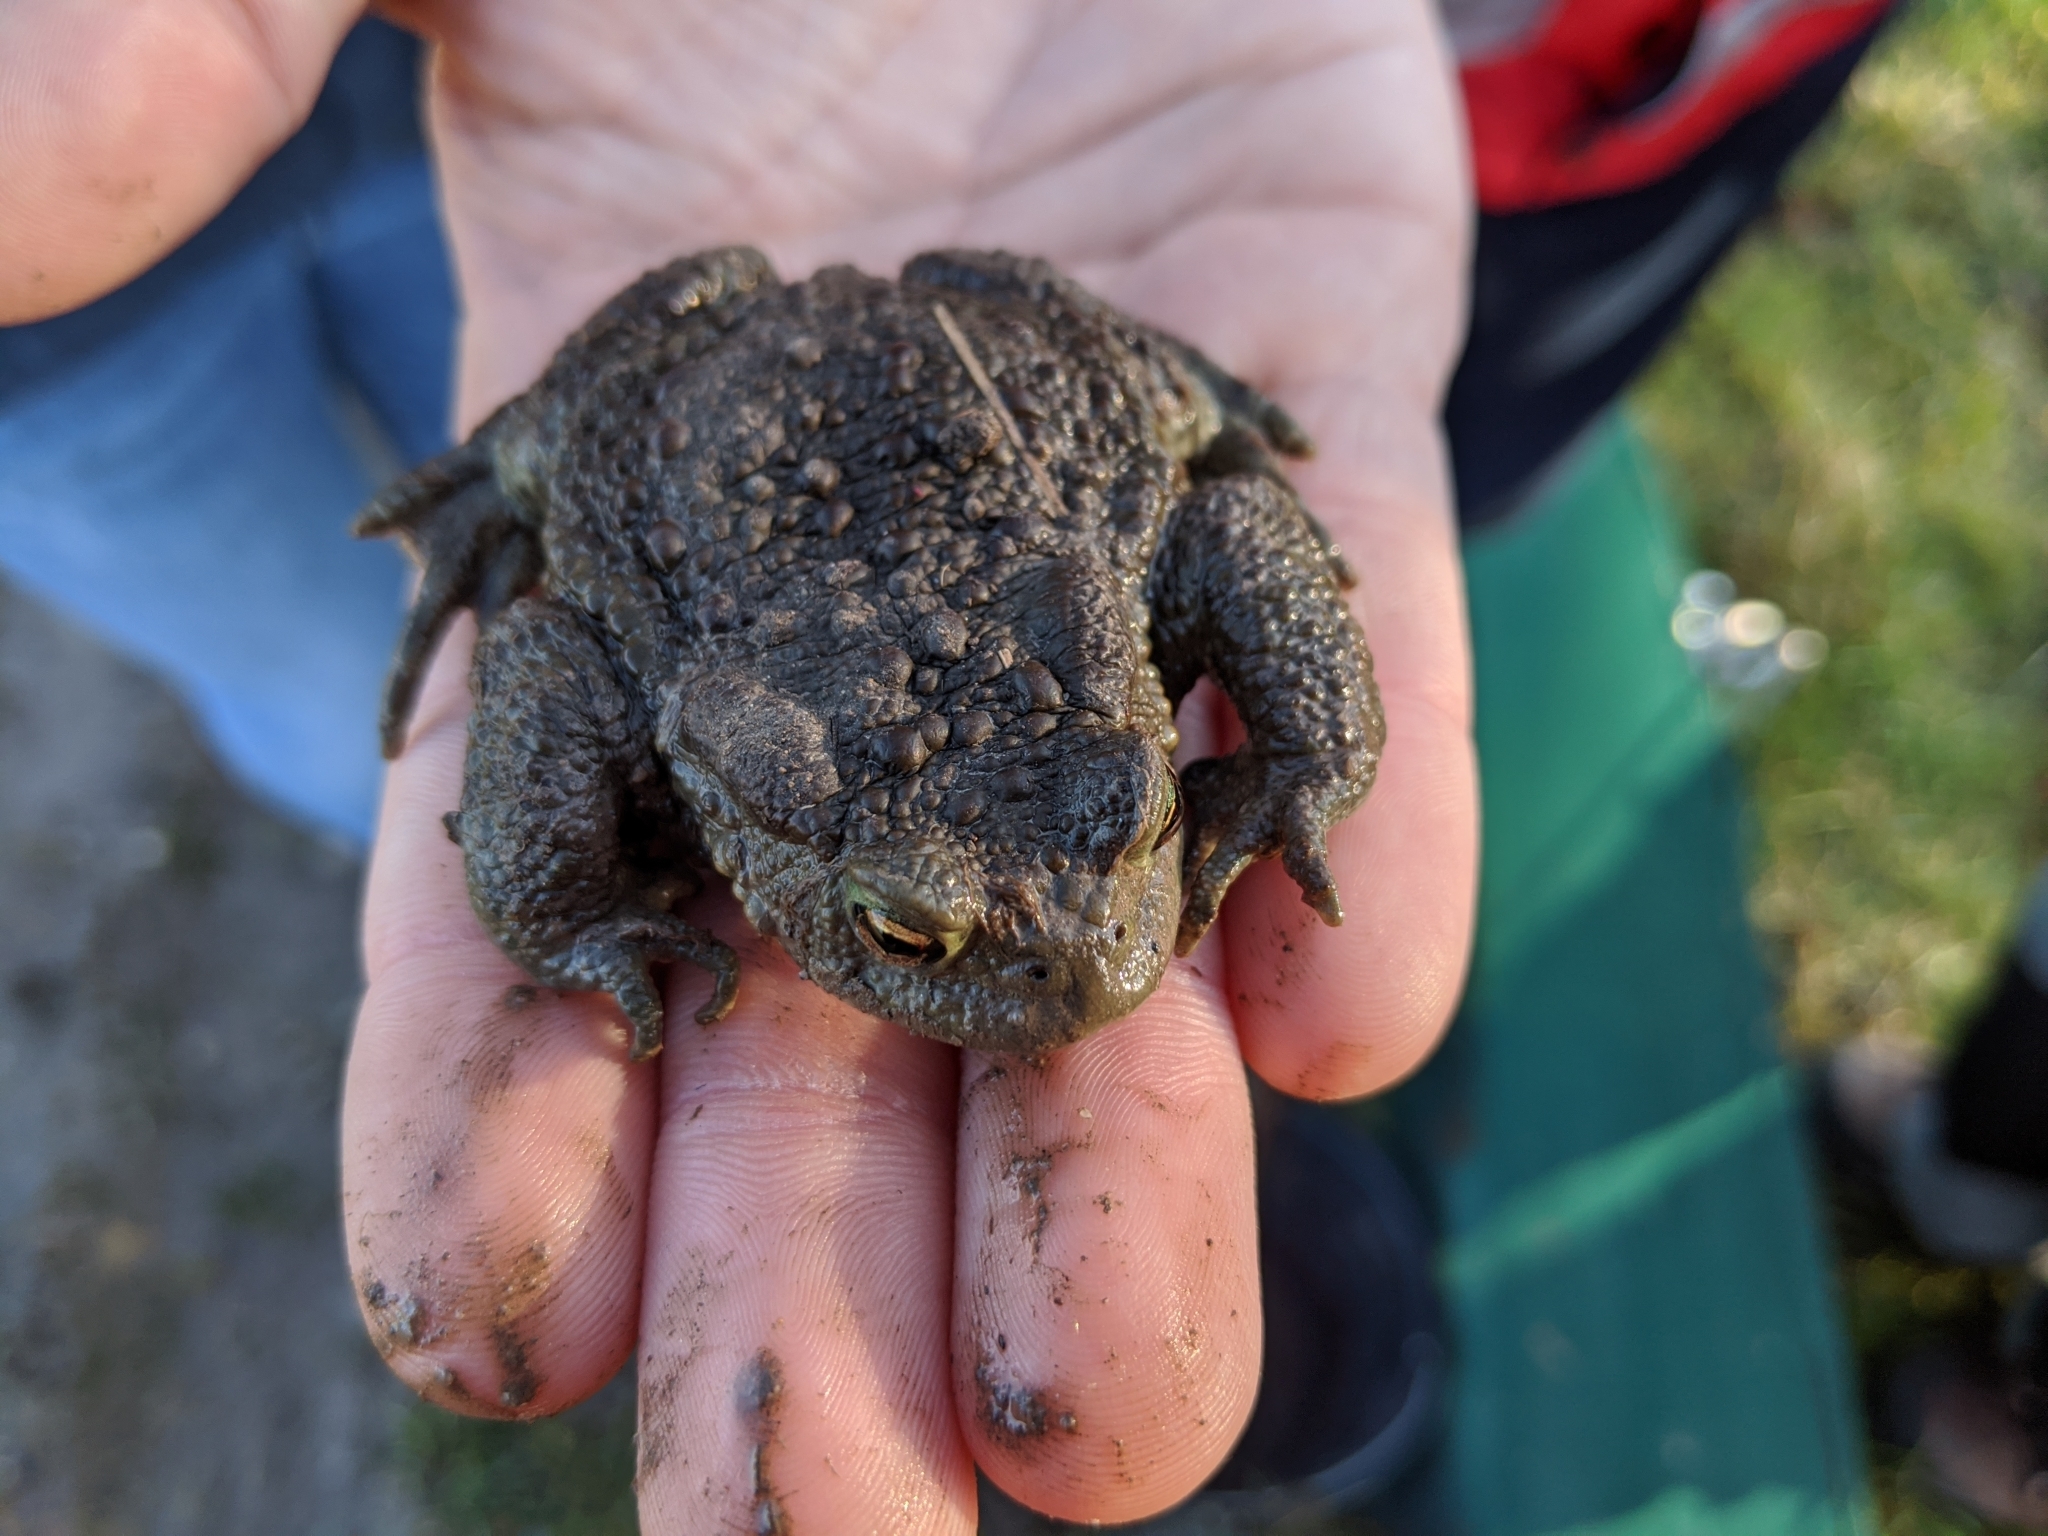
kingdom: Animalia
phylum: Chordata
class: Amphibia
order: Anura
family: Bufonidae
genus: Bufo
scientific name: Bufo bufo
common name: Common toad
